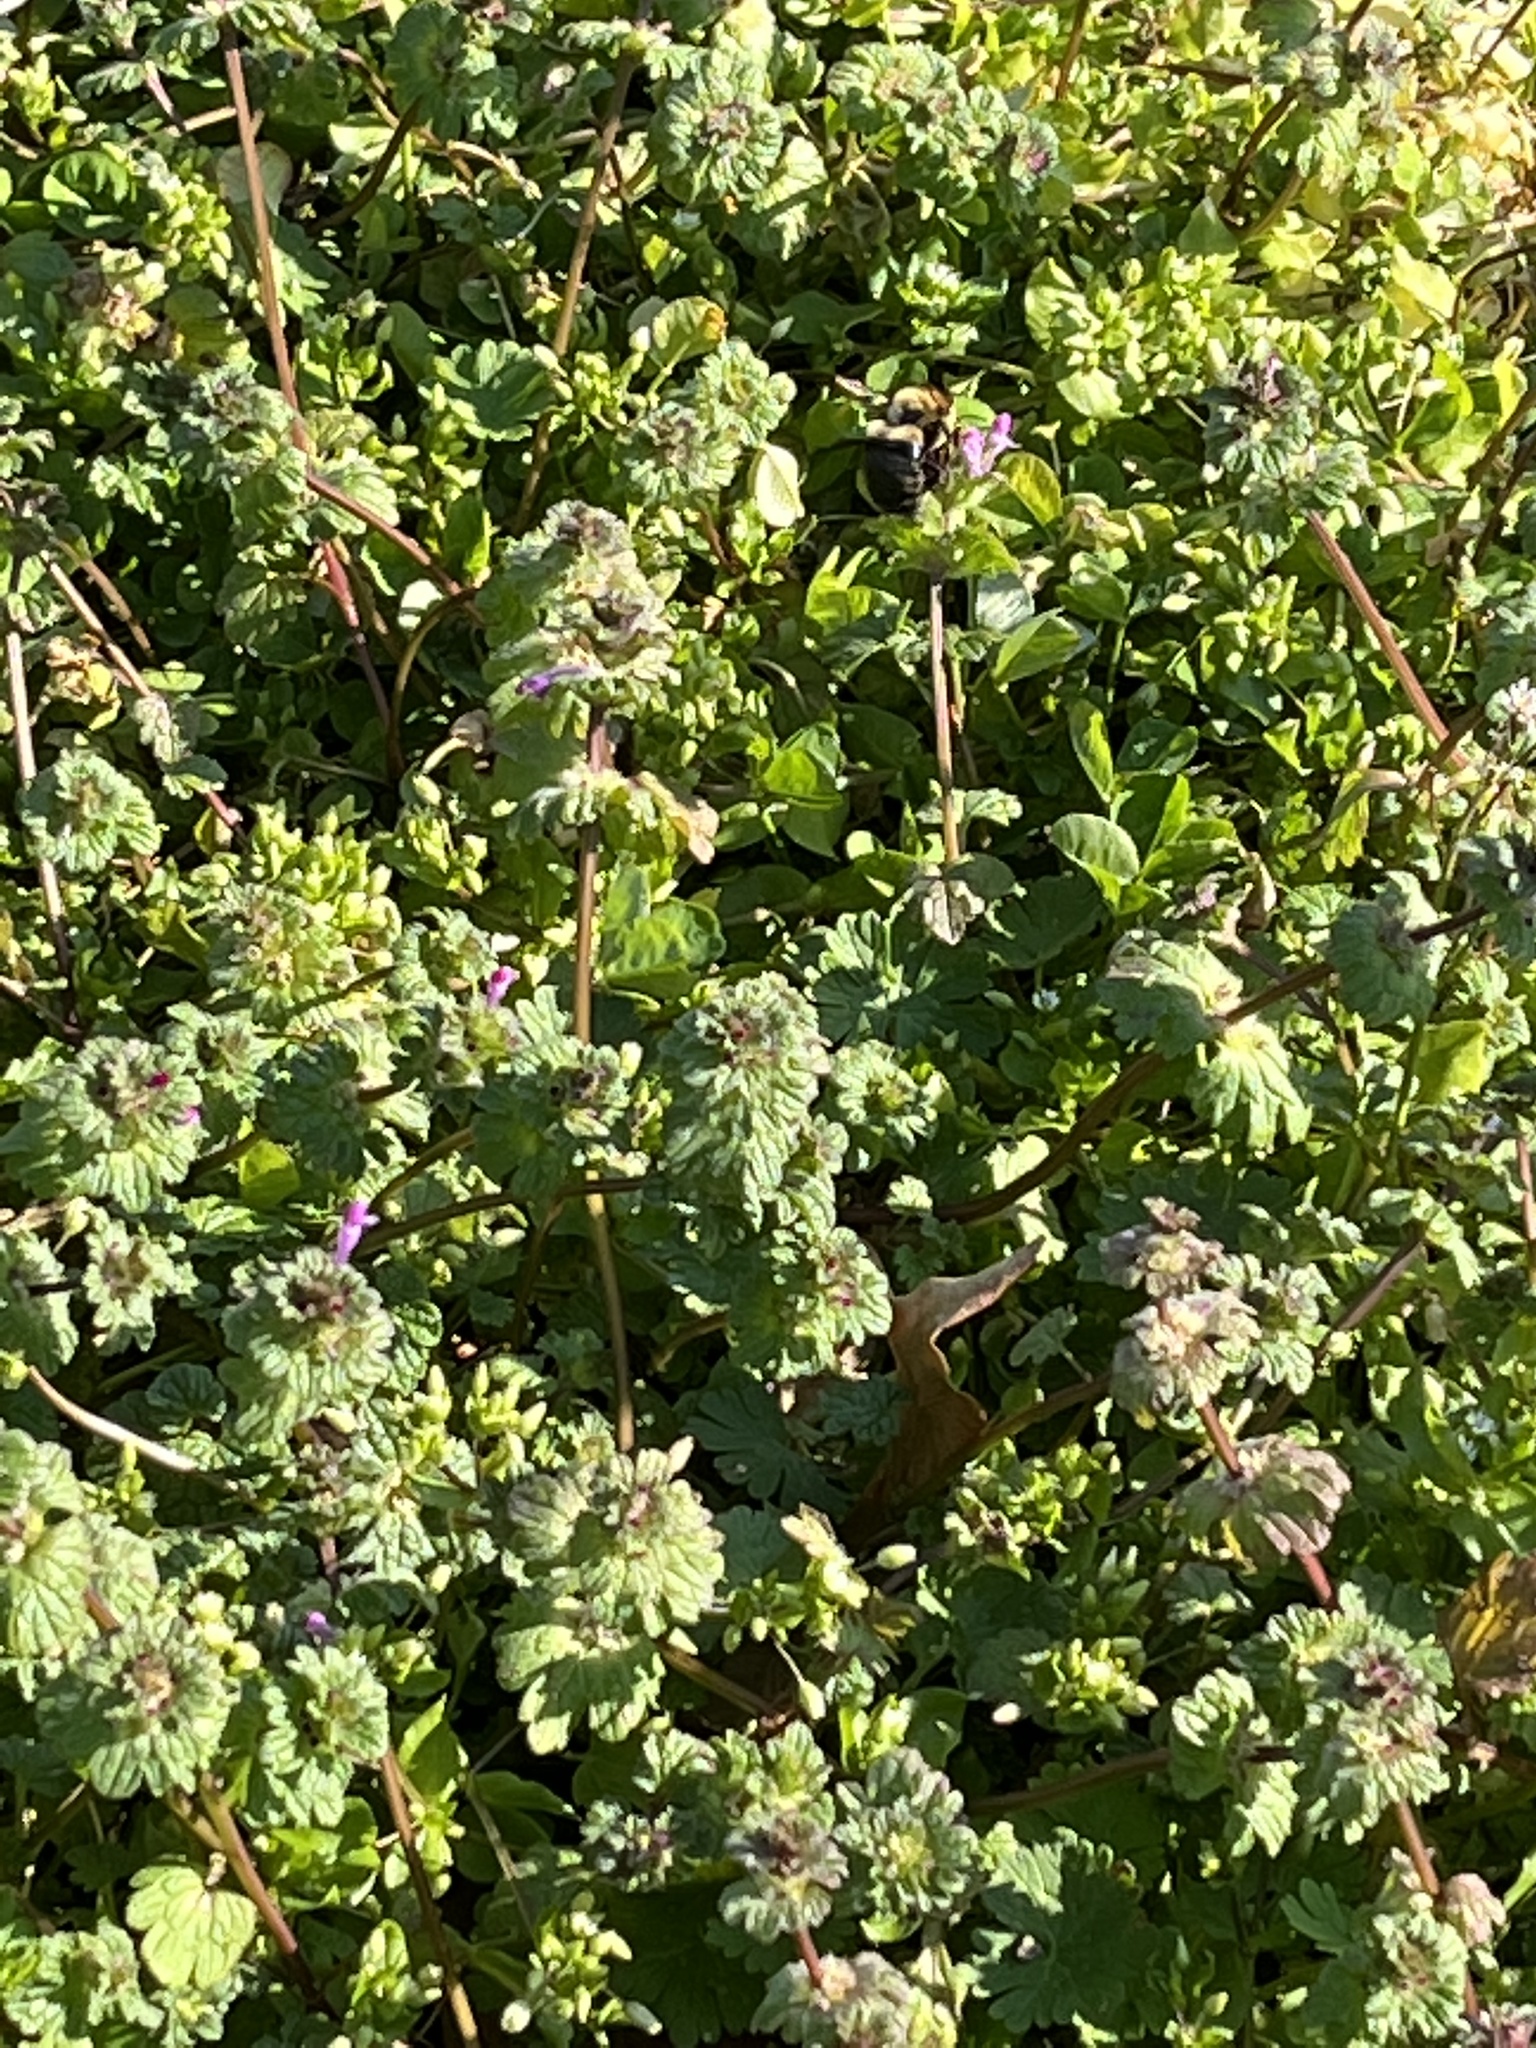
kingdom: Animalia
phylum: Arthropoda
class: Insecta
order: Hymenoptera
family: Apidae
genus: Xylocopa
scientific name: Xylocopa virginica
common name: Carpenter bee
